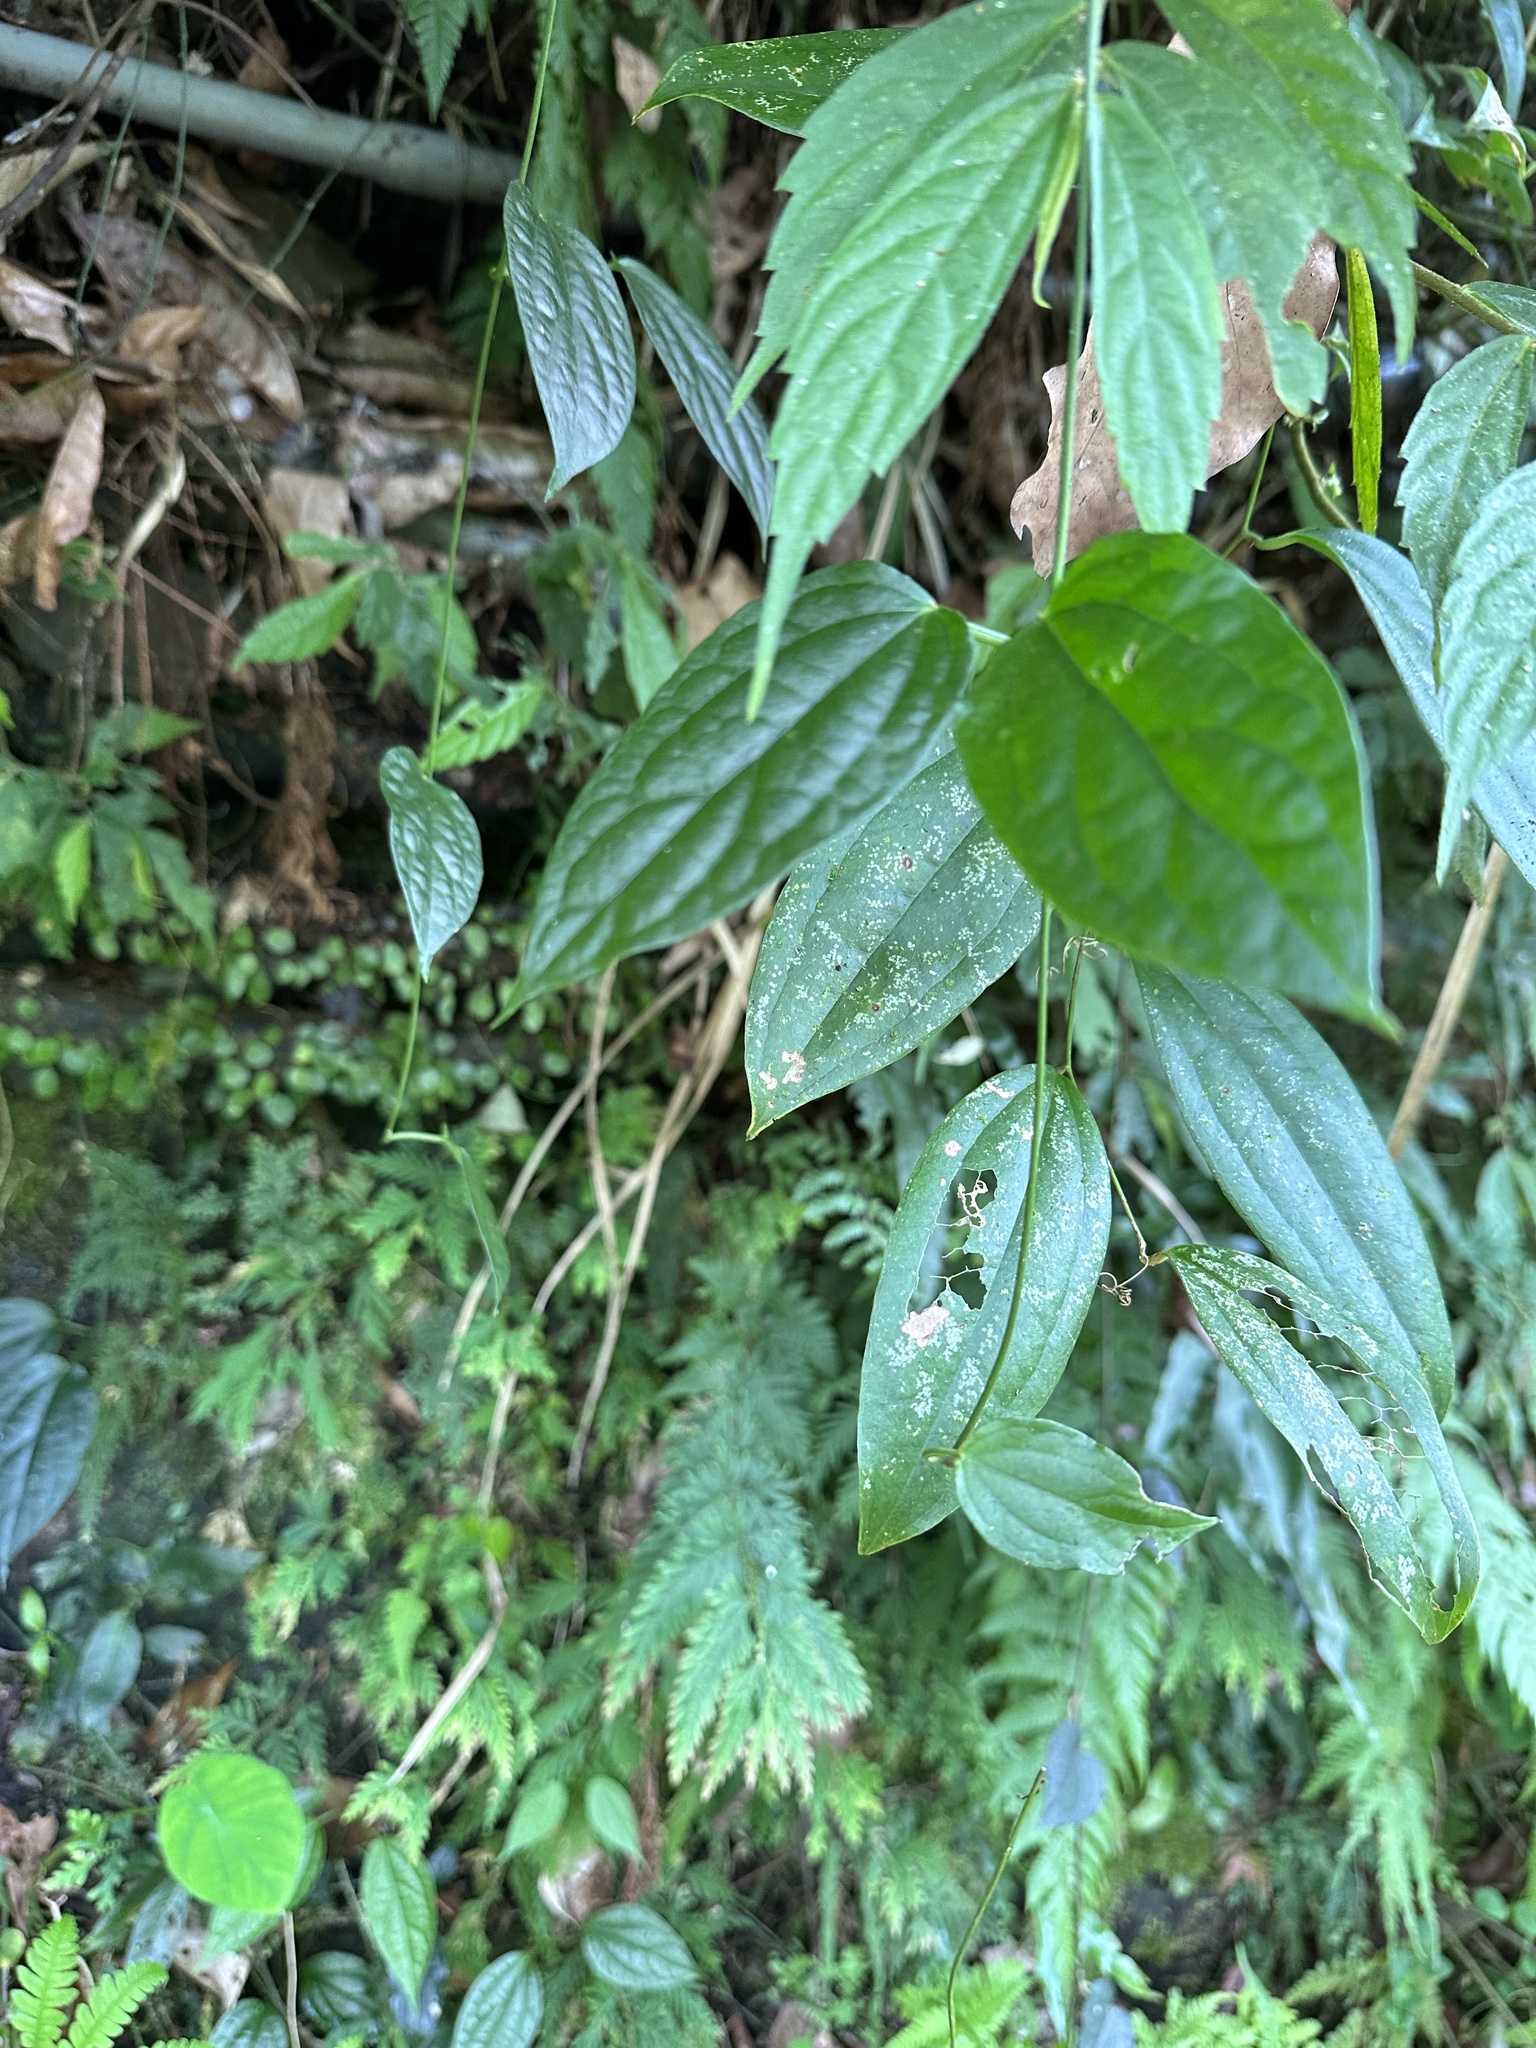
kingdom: Plantae
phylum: Tracheophyta
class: Magnoliopsida
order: Gentianales
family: Apocynaceae
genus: Heterostemma
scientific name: Heterostemma brownii
